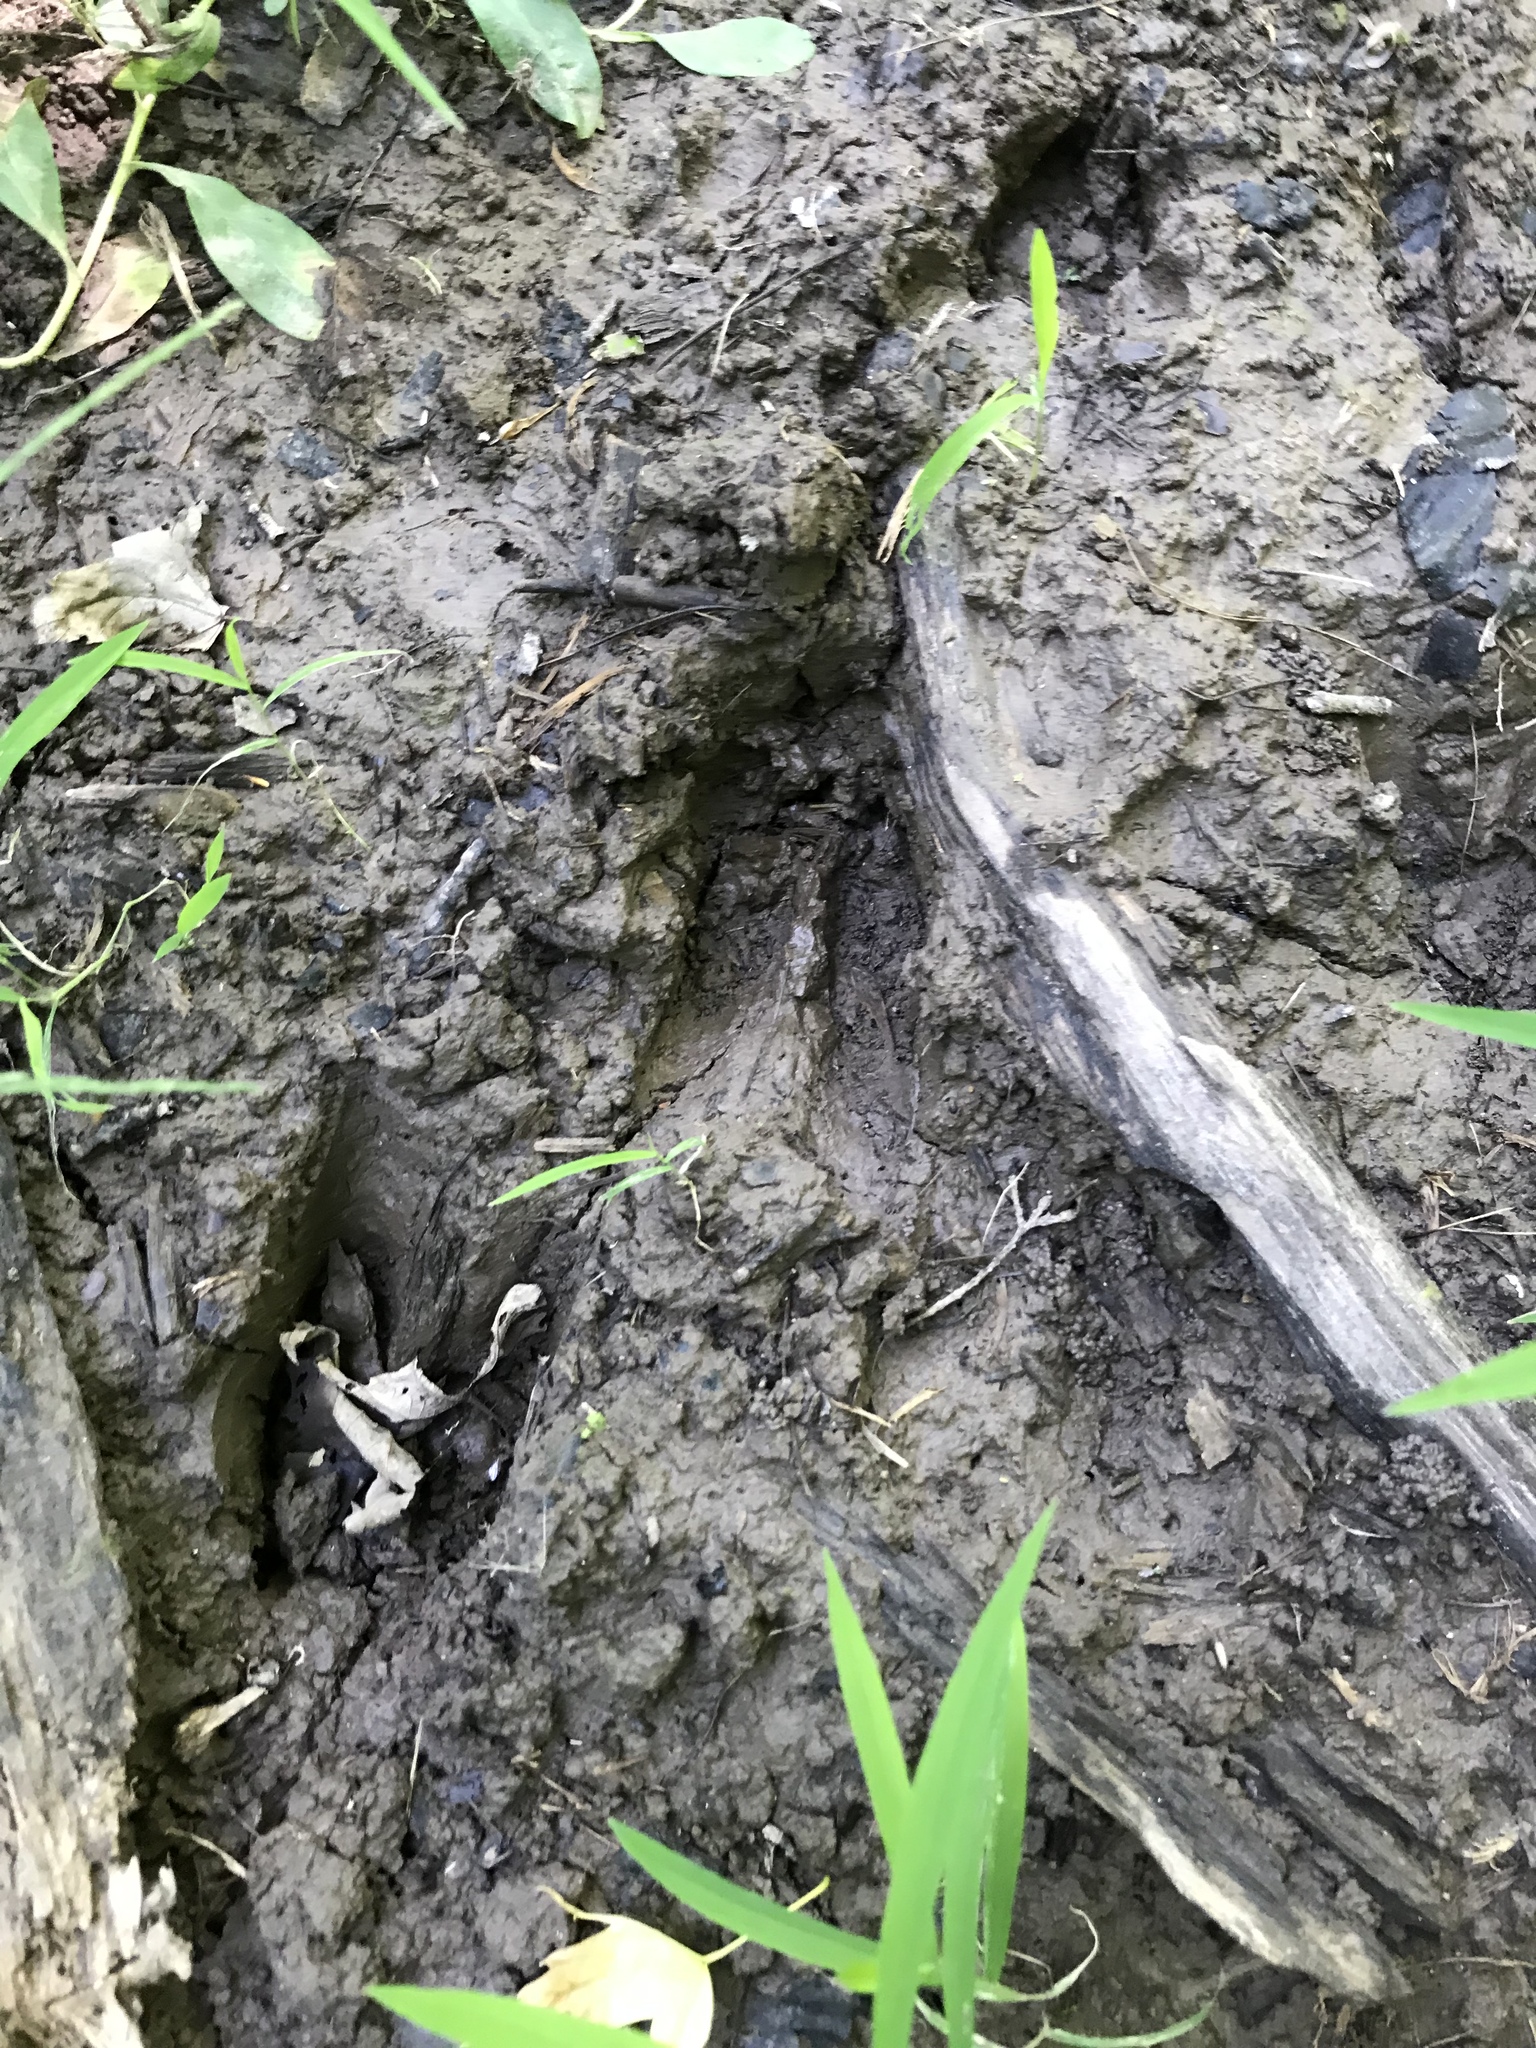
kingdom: Animalia
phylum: Chordata
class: Mammalia
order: Artiodactyla
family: Cervidae
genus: Odocoileus
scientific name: Odocoileus virginianus
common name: White-tailed deer
